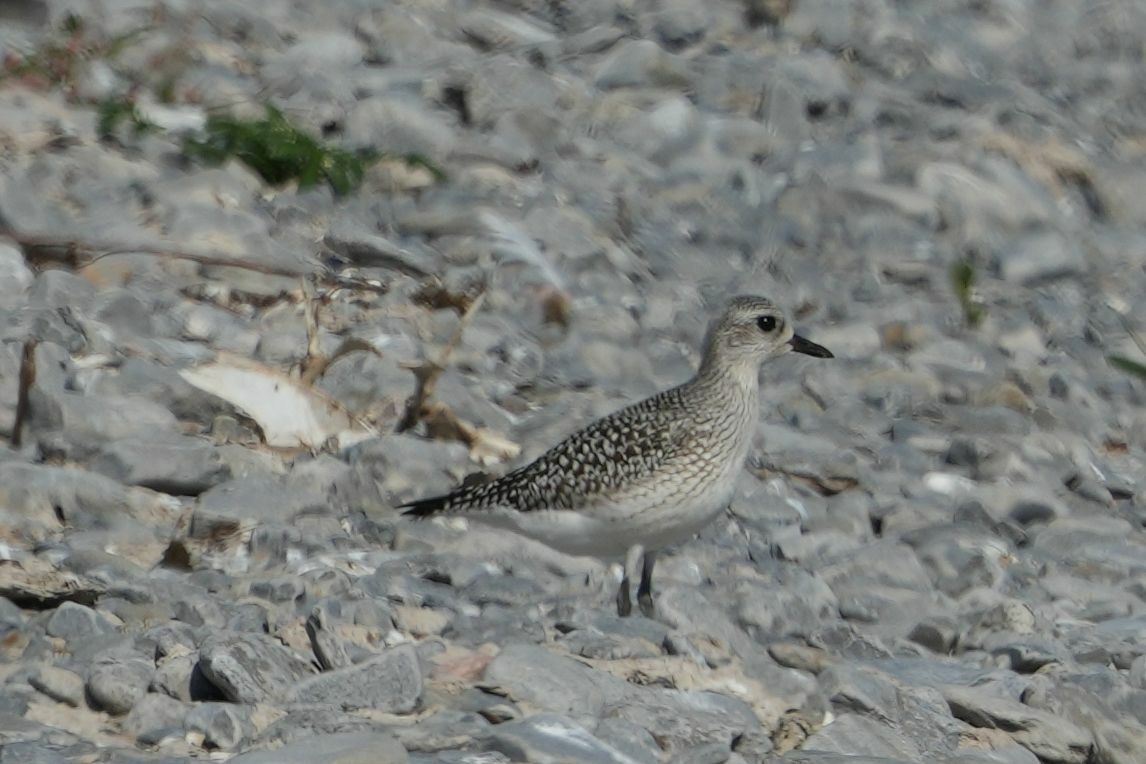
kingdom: Animalia
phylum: Chordata
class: Aves
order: Charadriiformes
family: Charadriidae
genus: Pluvialis
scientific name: Pluvialis squatarola
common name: Grey plover
